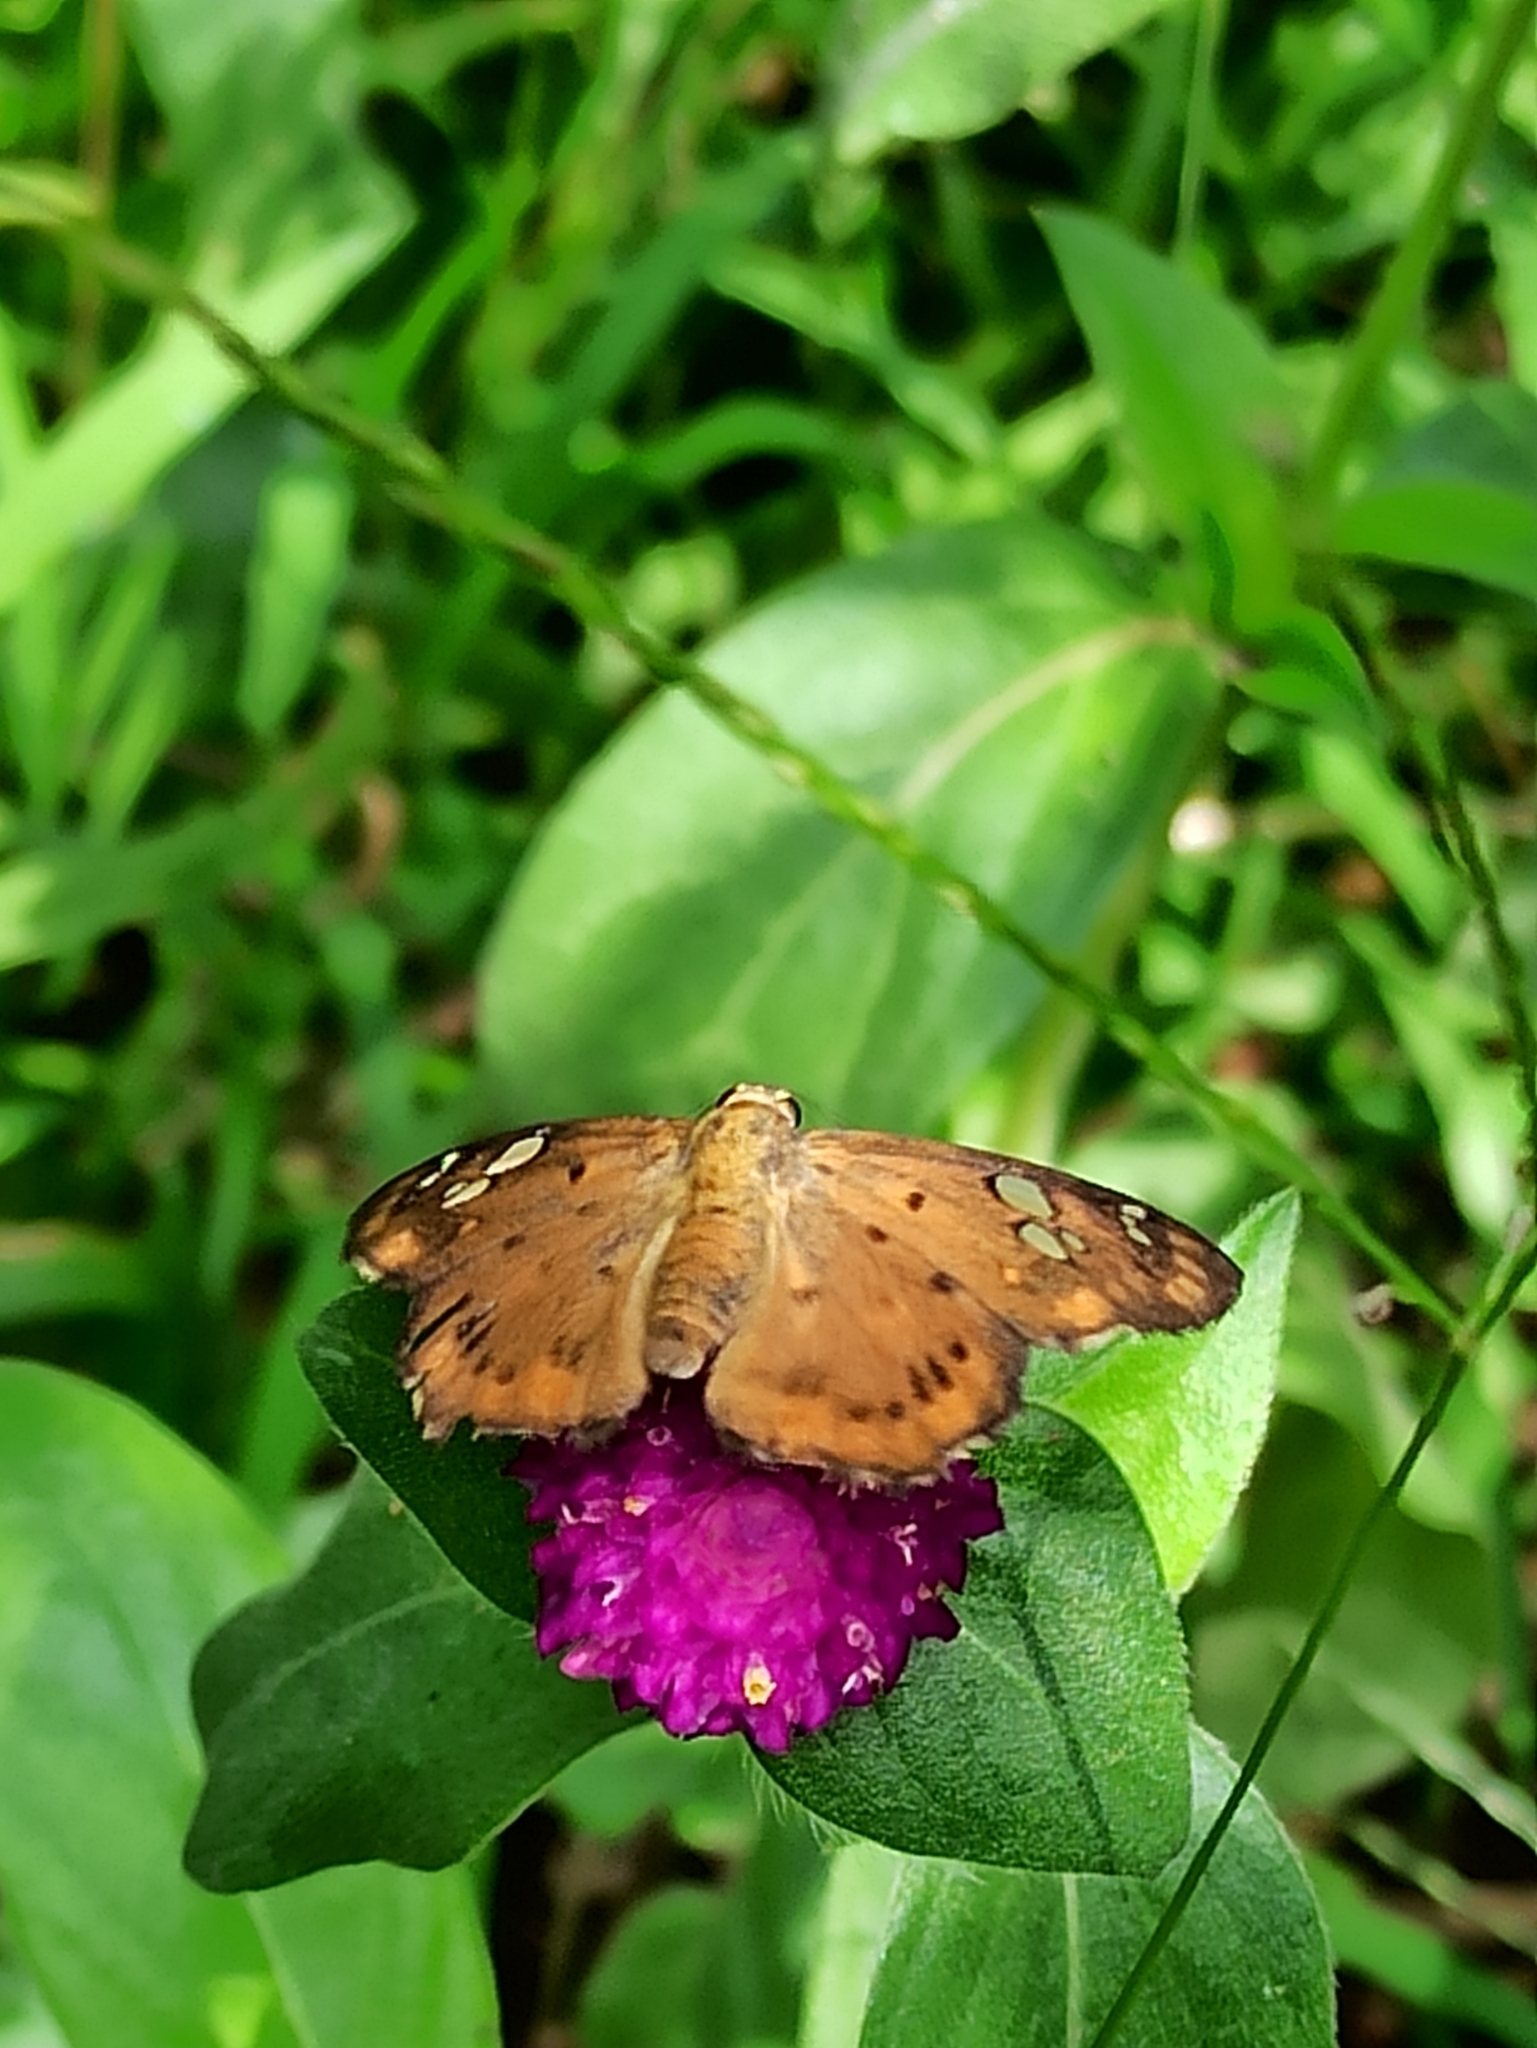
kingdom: Animalia
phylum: Arthropoda
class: Insecta
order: Lepidoptera
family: Hesperiidae
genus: Coladenia
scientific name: Coladenia
